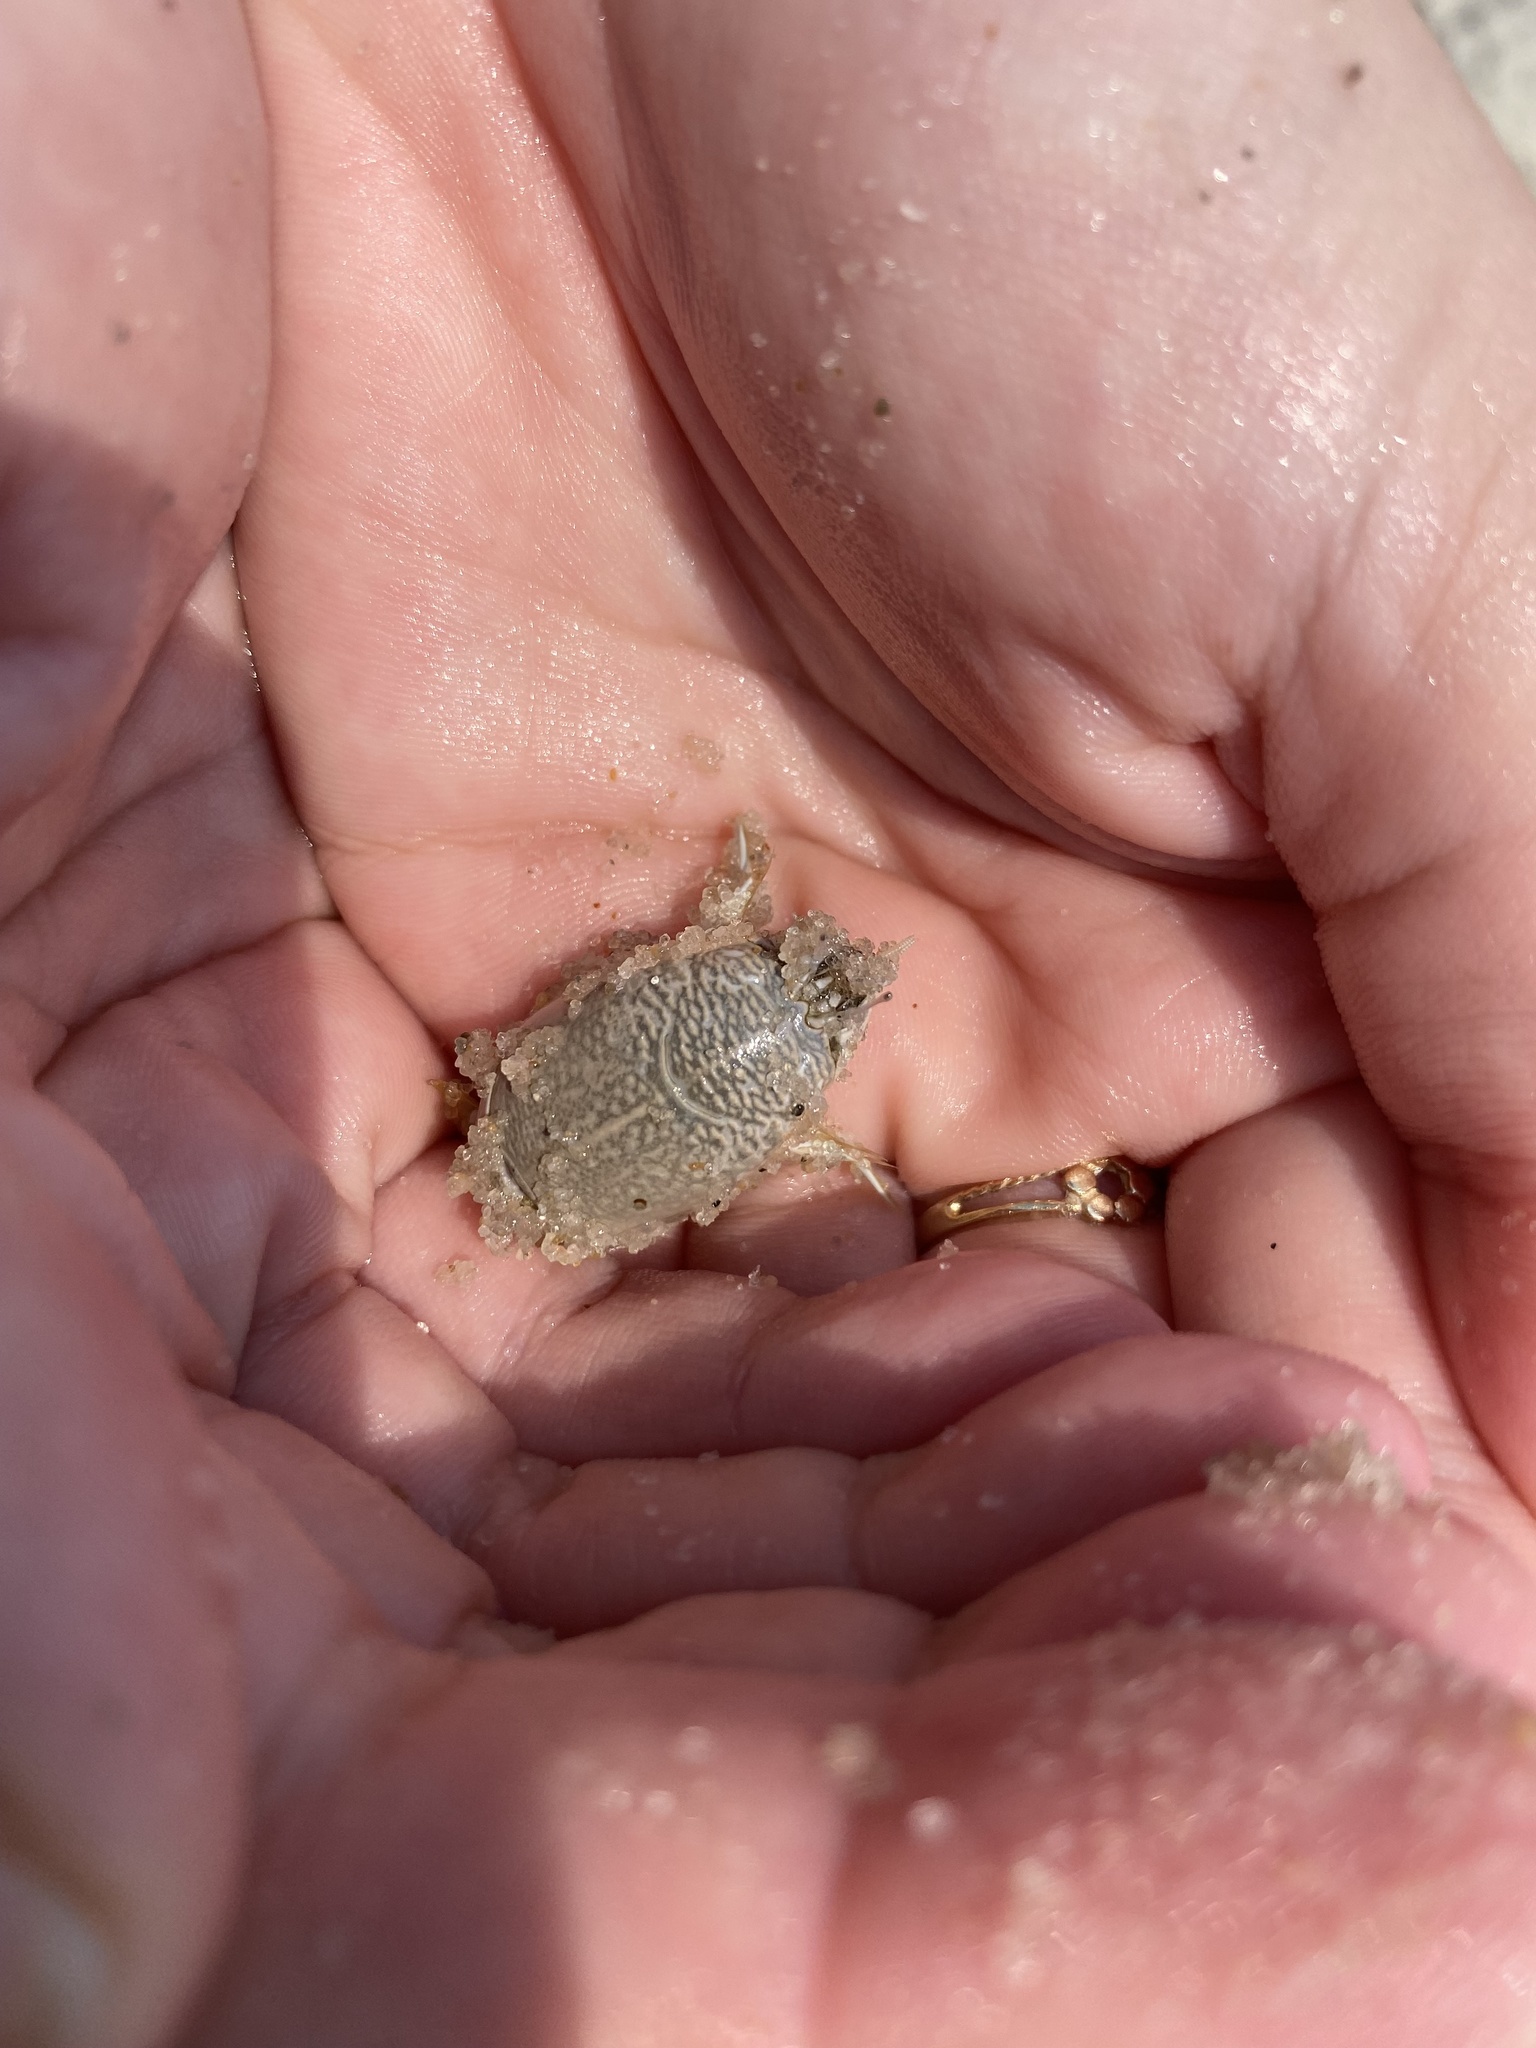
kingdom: Animalia
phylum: Arthropoda
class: Malacostraca
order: Decapoda
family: Hippidae
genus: Emerita
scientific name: Emerita talpoida
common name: Atlantic sand crab
